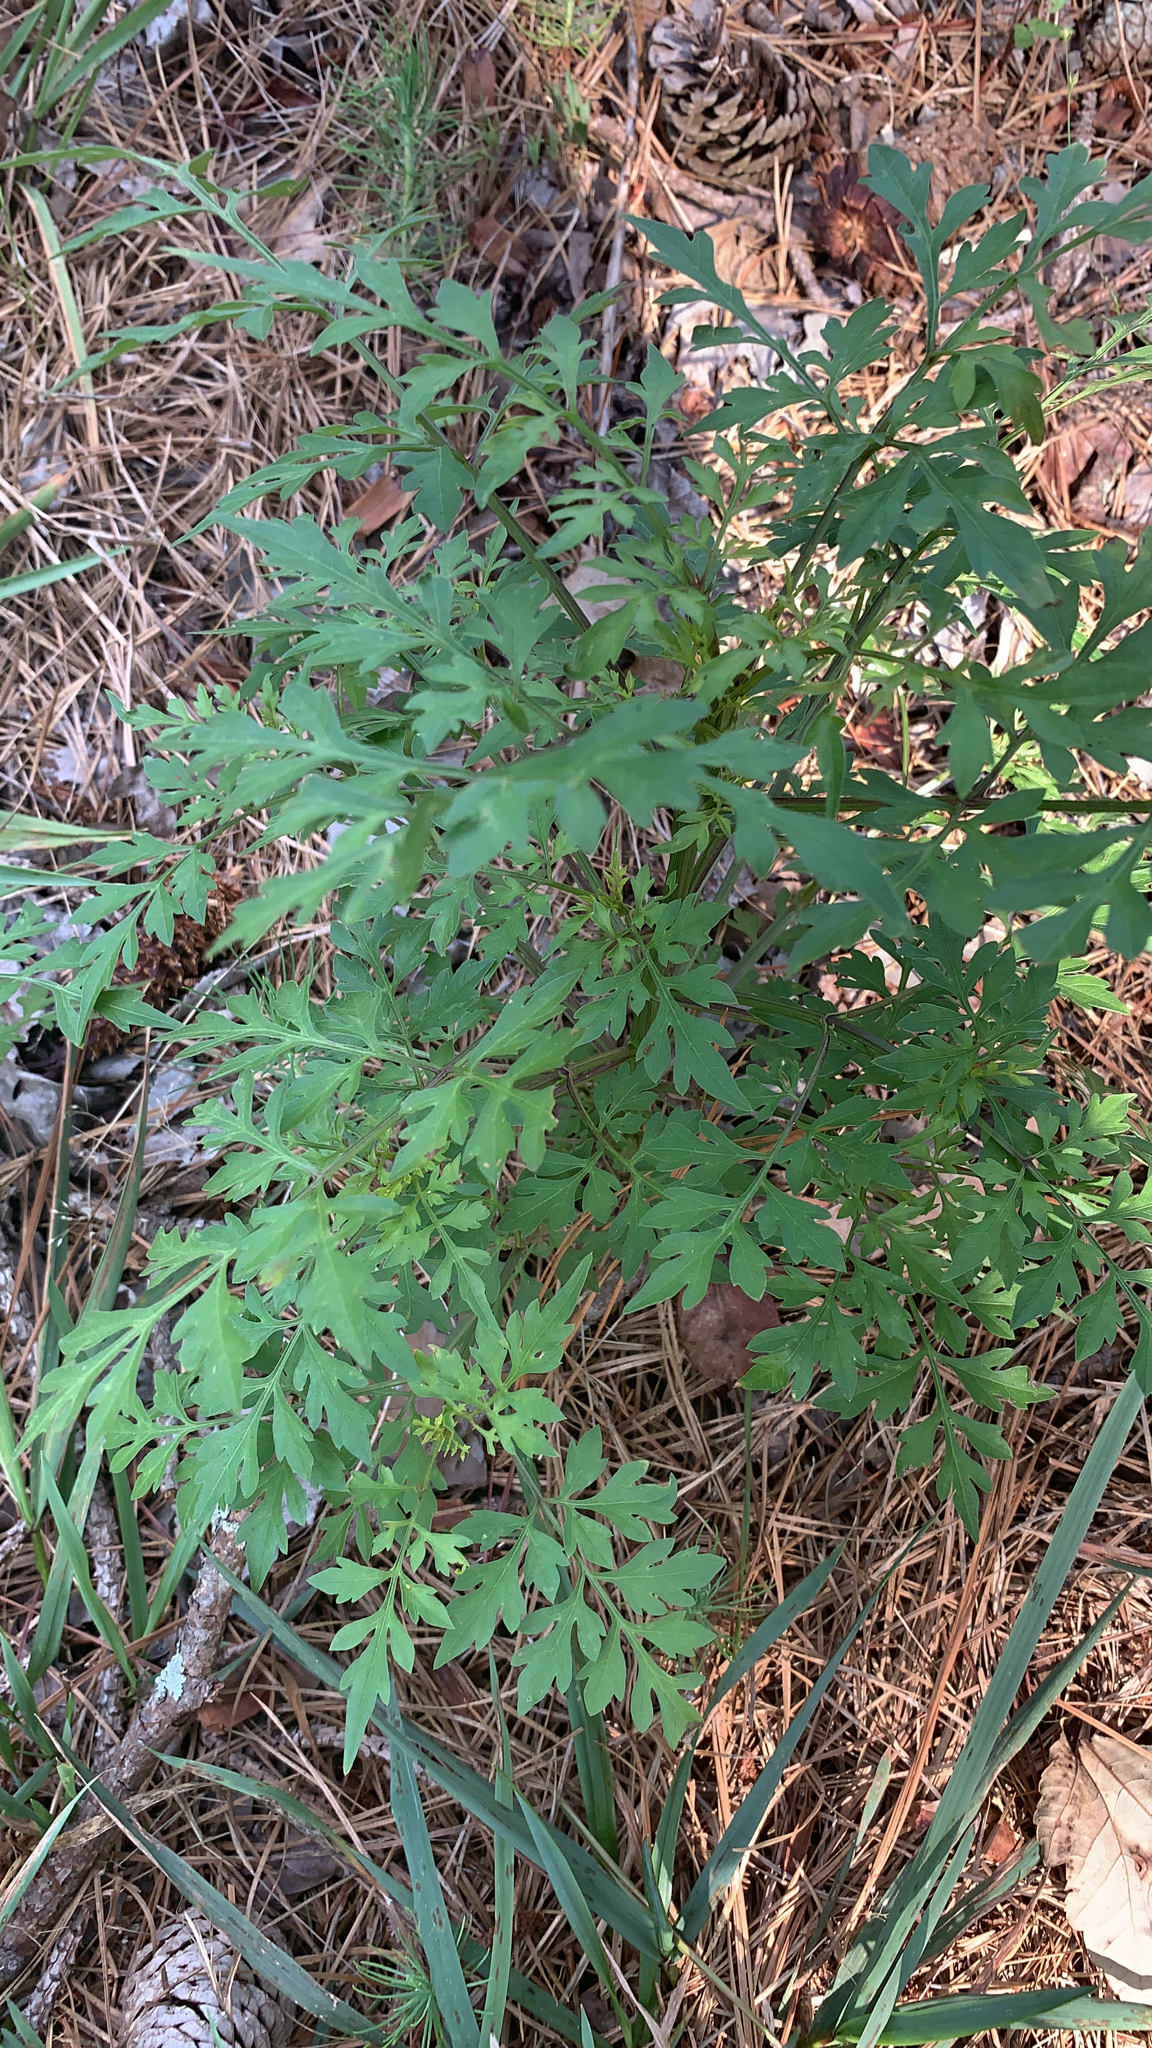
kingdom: Plantae
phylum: Tracheophyta
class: Magnoliopsida
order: Asterales
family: Asteraceae
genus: Bidens
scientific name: Bidens bipinnata
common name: Spanish-needles
